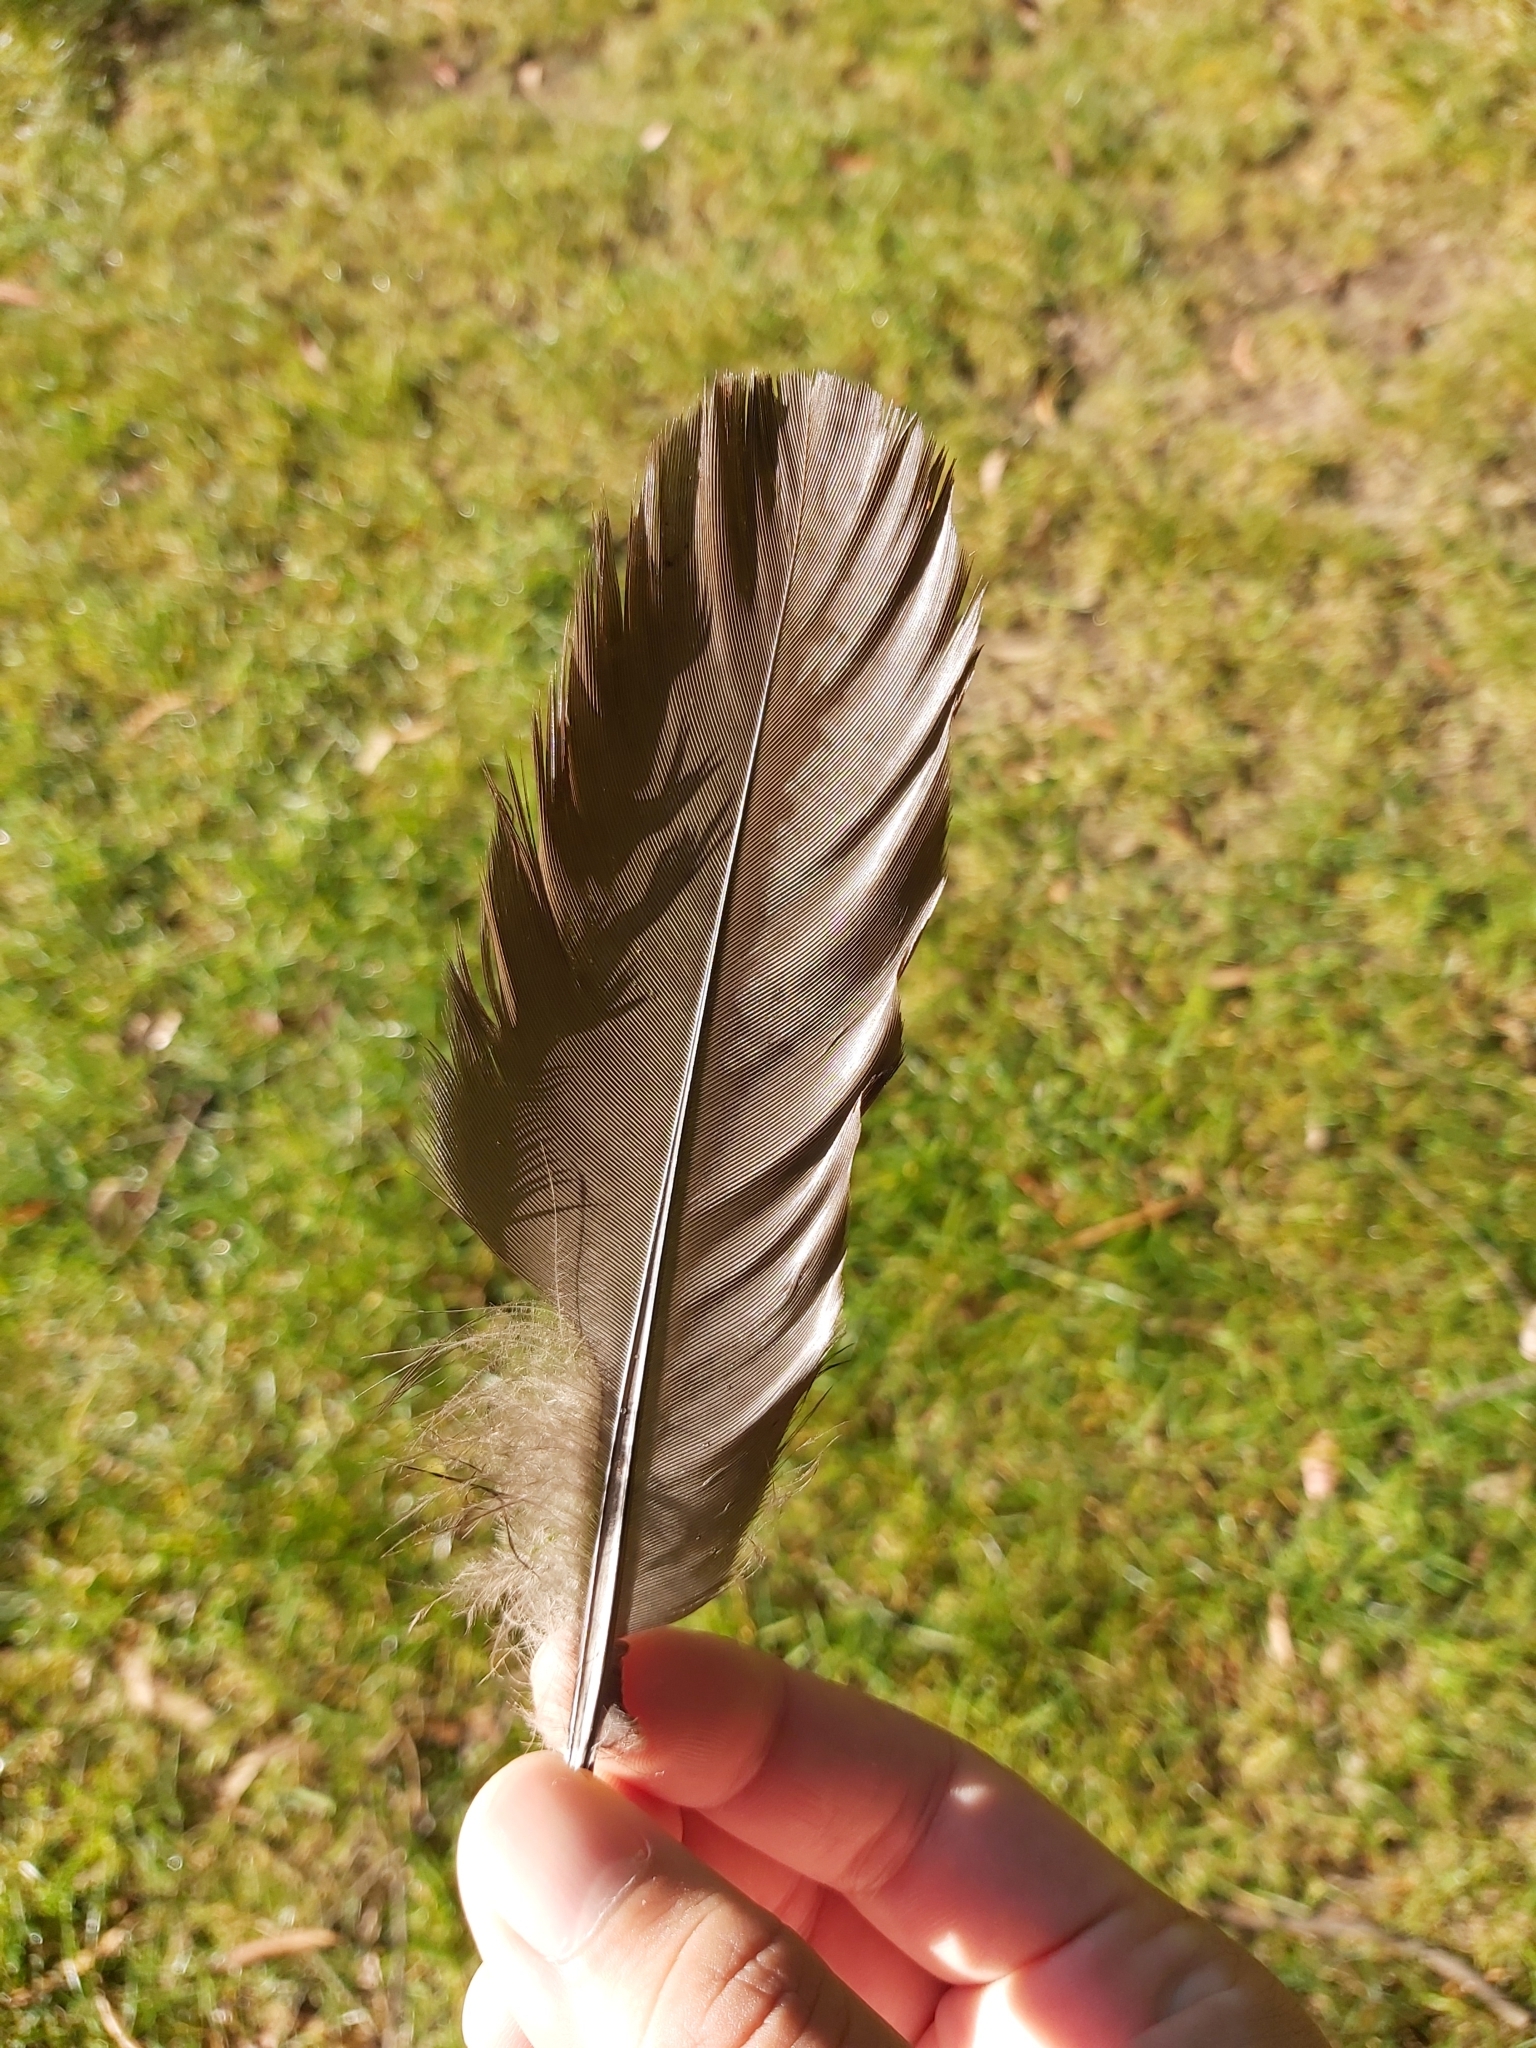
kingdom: Animalia
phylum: Chordata
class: Aves
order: Galliformes
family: Megapodiidae
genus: Alectura
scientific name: Alectura lathami
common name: Australian brushturkey
